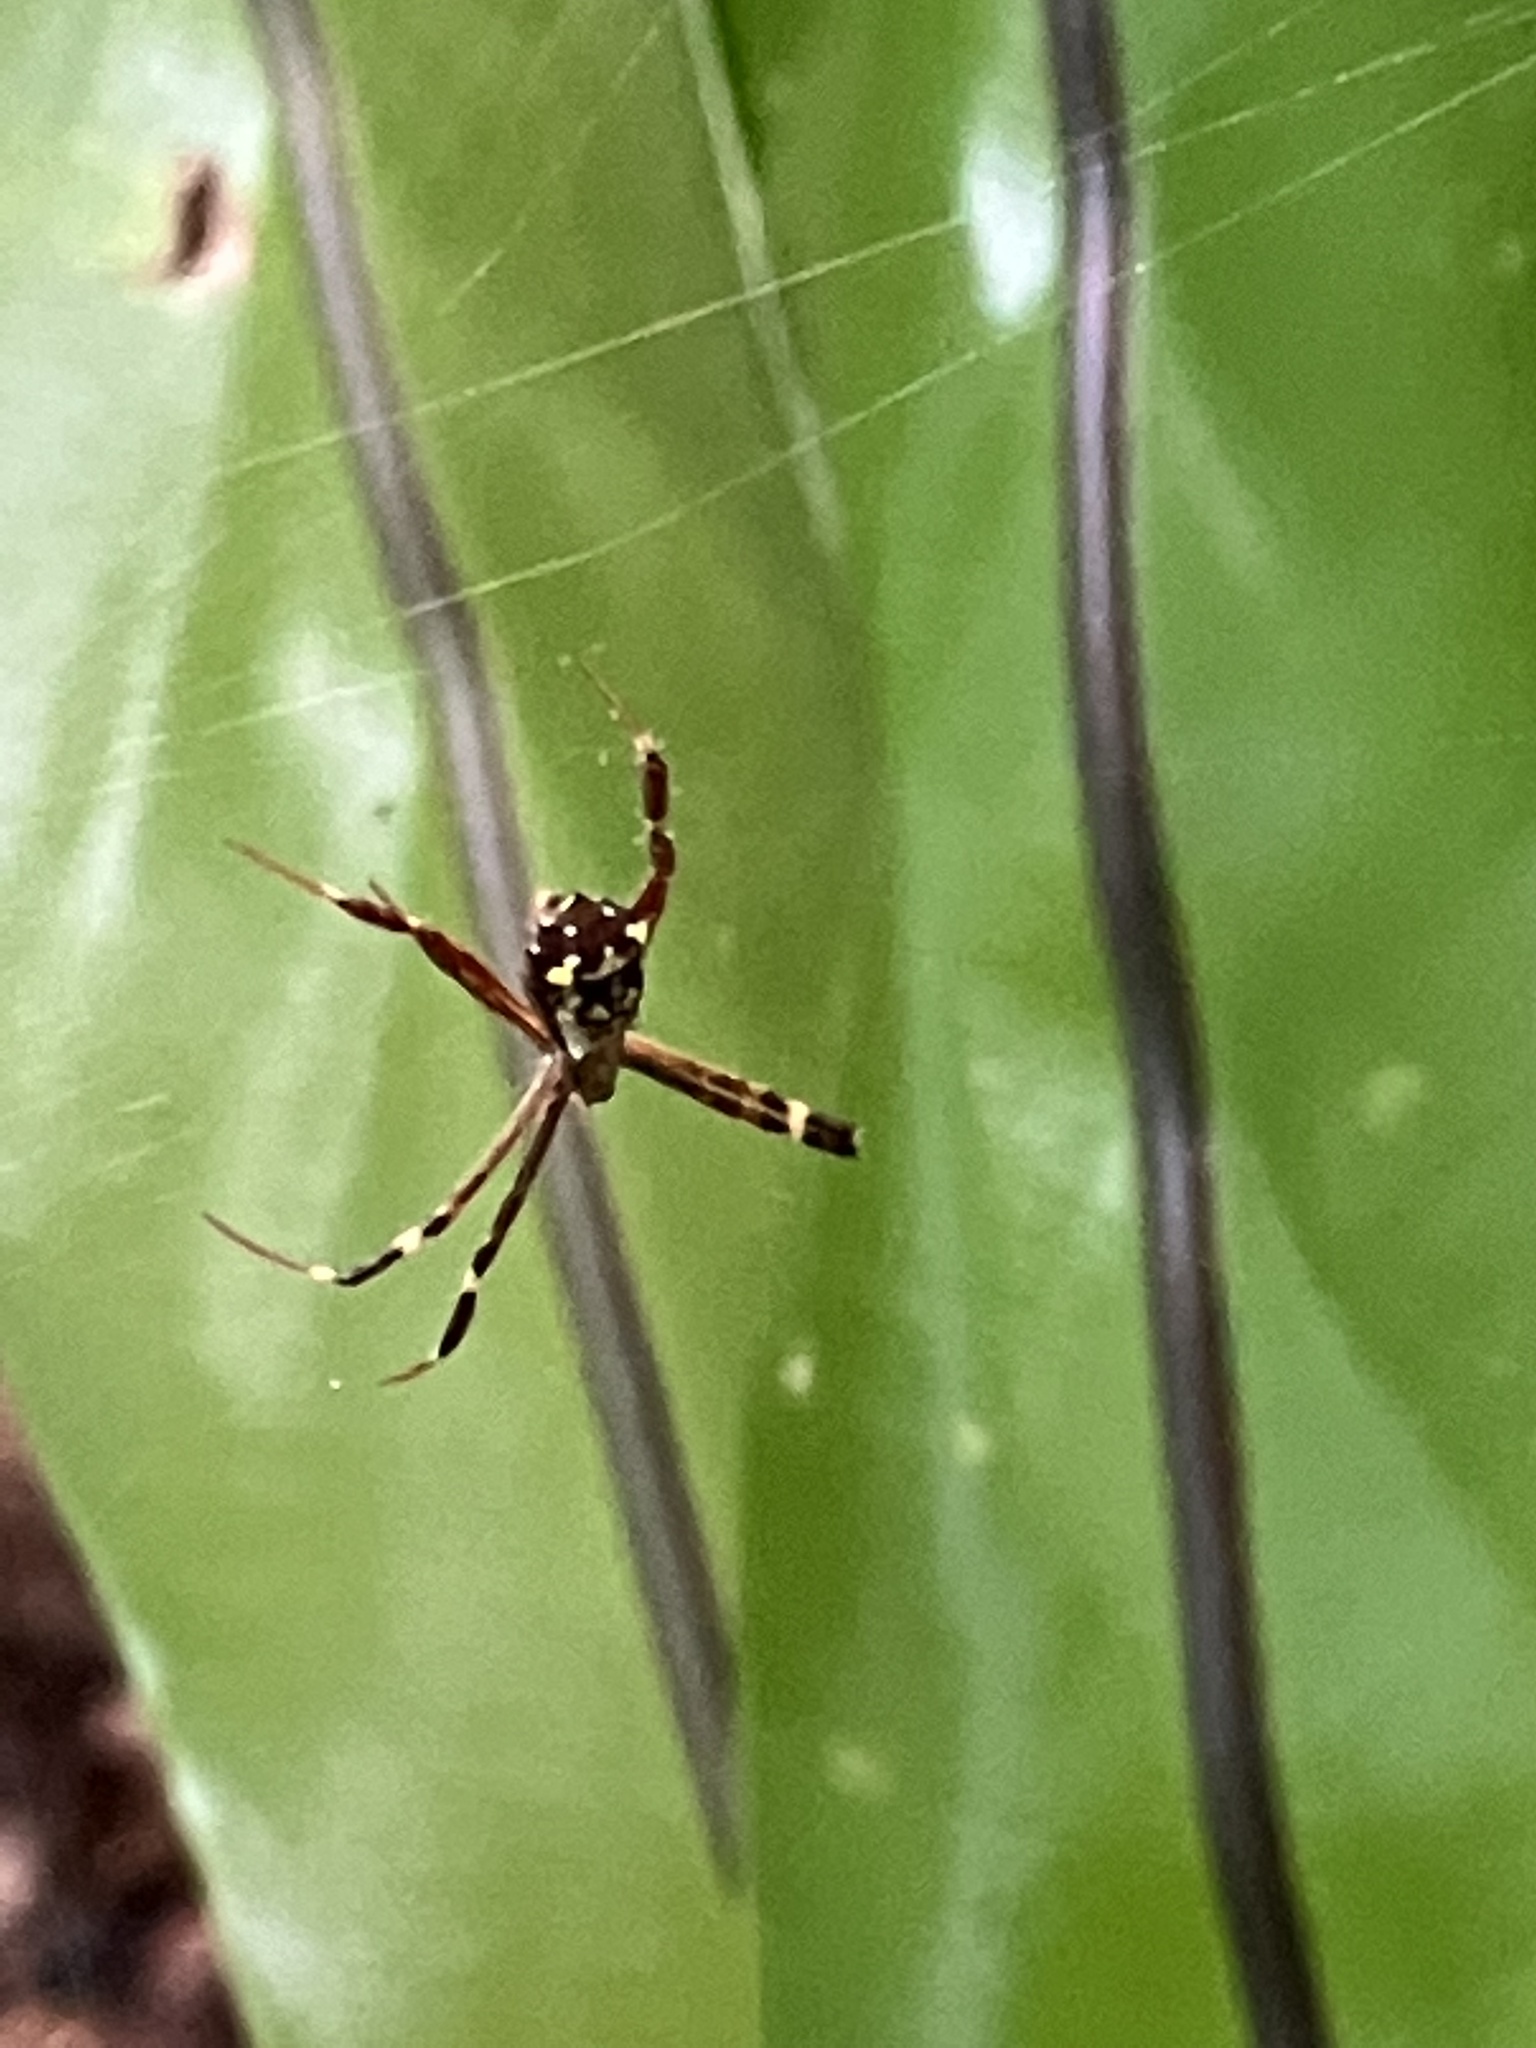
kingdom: Animalia
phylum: Arthropoda
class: Arachnida
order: Araneae
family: Araneidae
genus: Argiope
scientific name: Argiope anasuja
